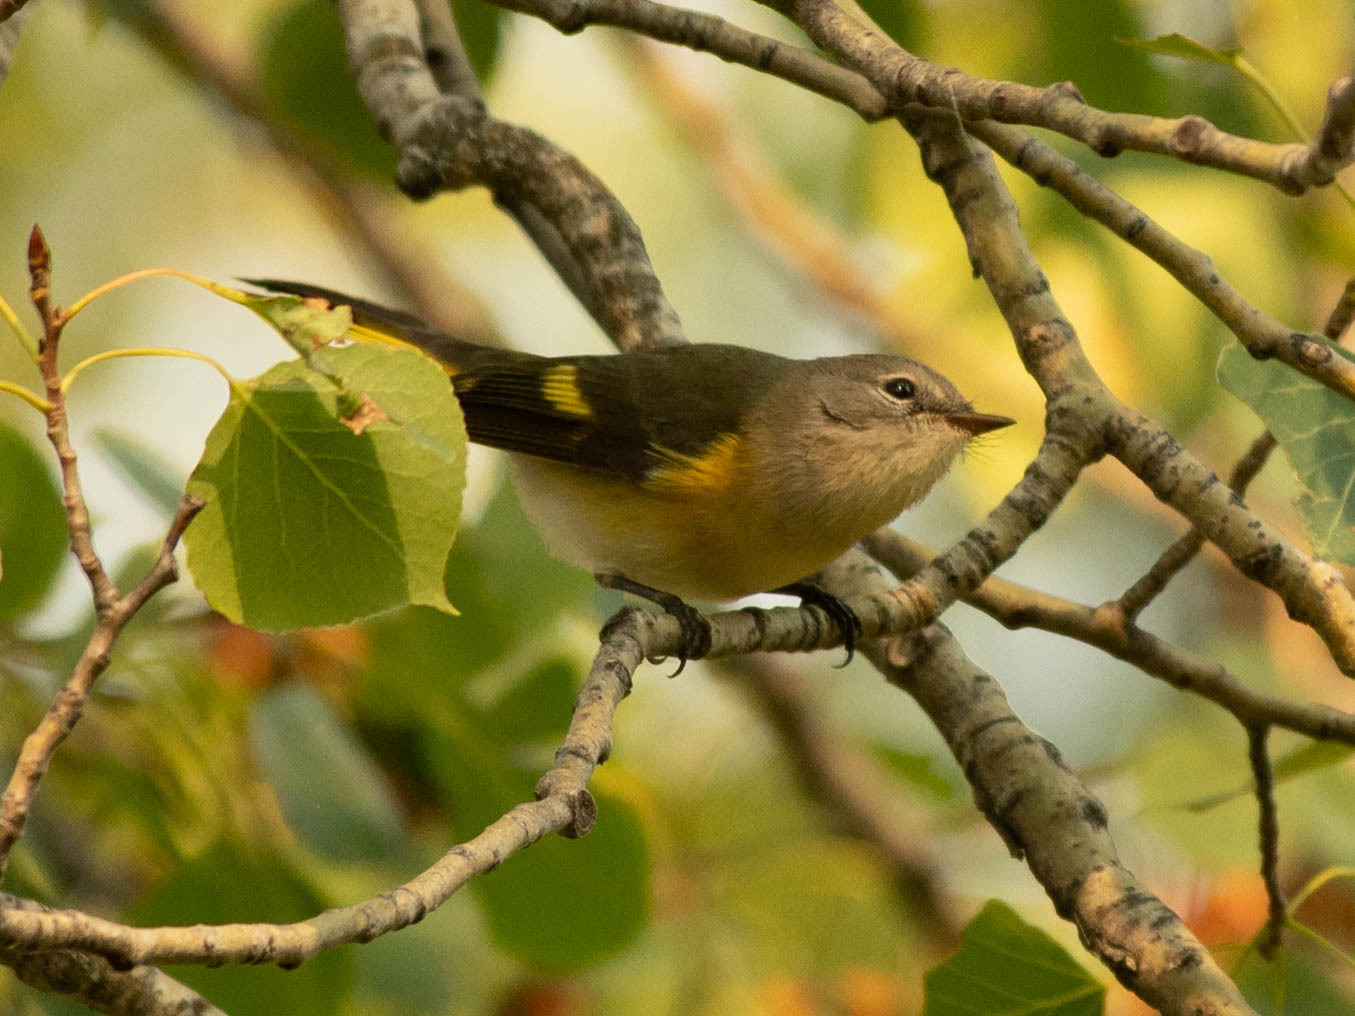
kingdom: Animalia
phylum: Chordata
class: Aves
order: Passeriformes
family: Parulidae
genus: Setophaga
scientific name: Setophaga ruticilla
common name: American redstart
